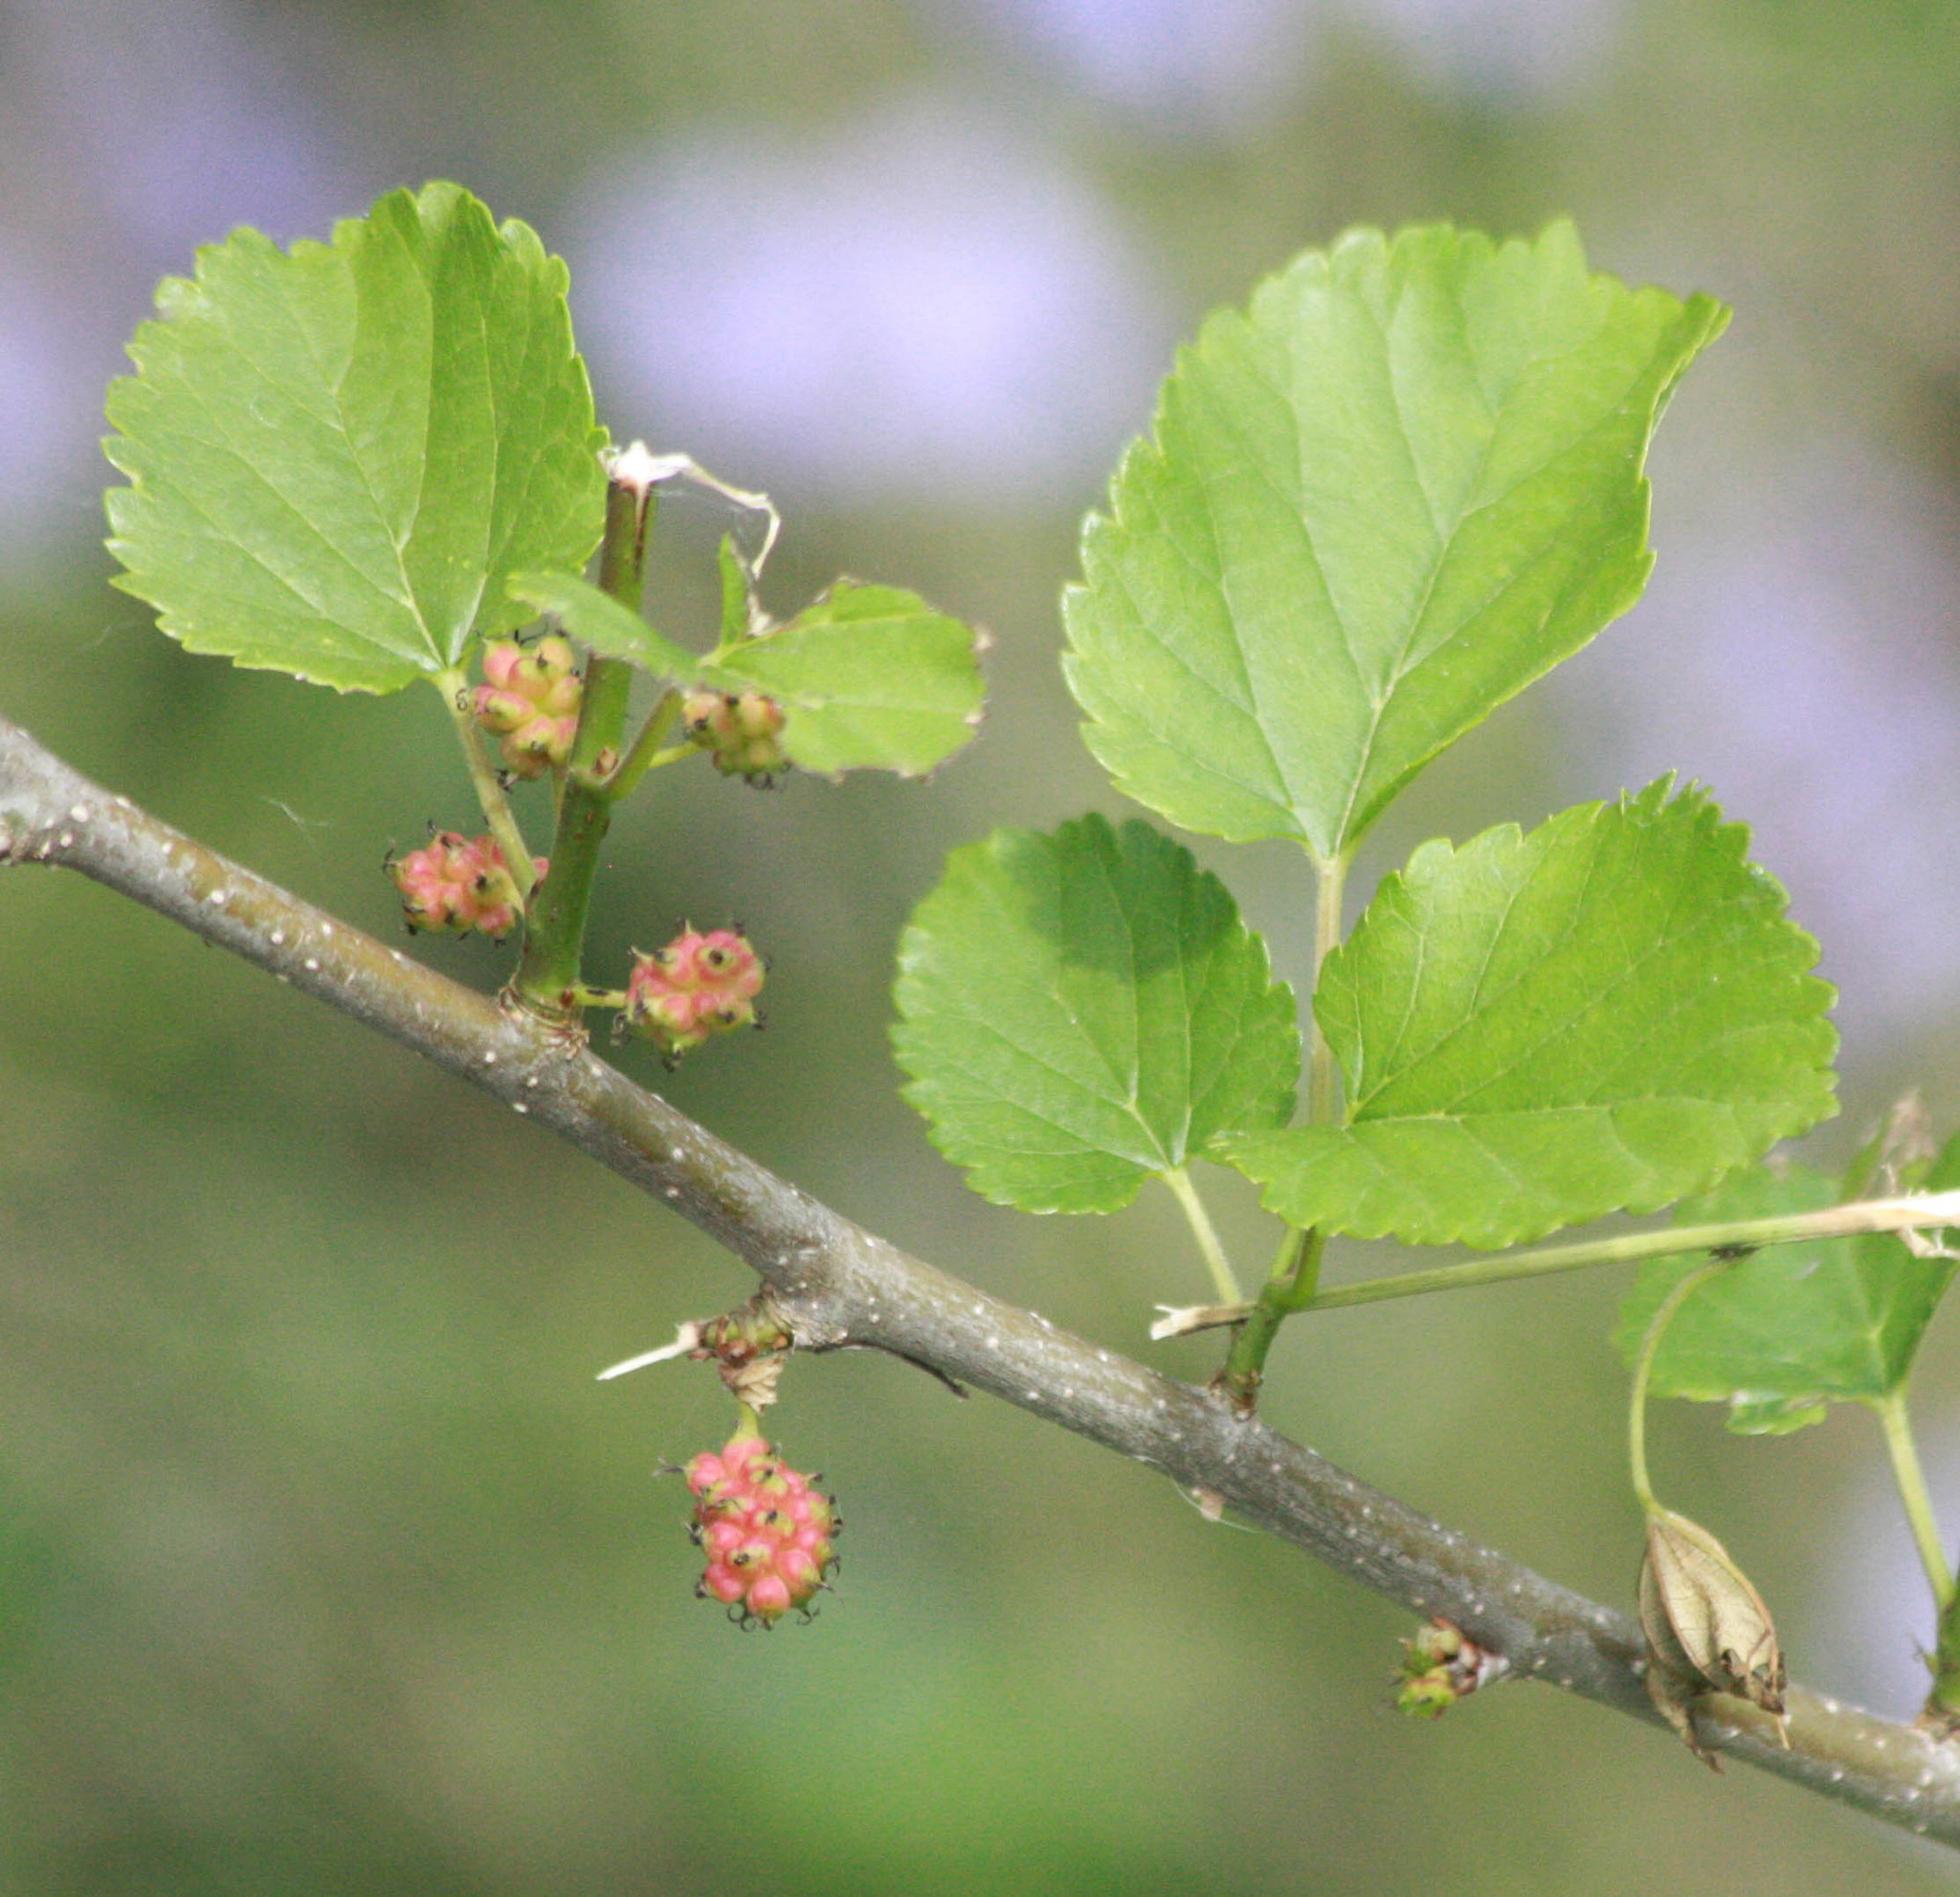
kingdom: Plantae
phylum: Tracheophyta
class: Magnoliopsida
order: Rosales
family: Moraceae
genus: Morus
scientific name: Morus alba
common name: White mulberry
